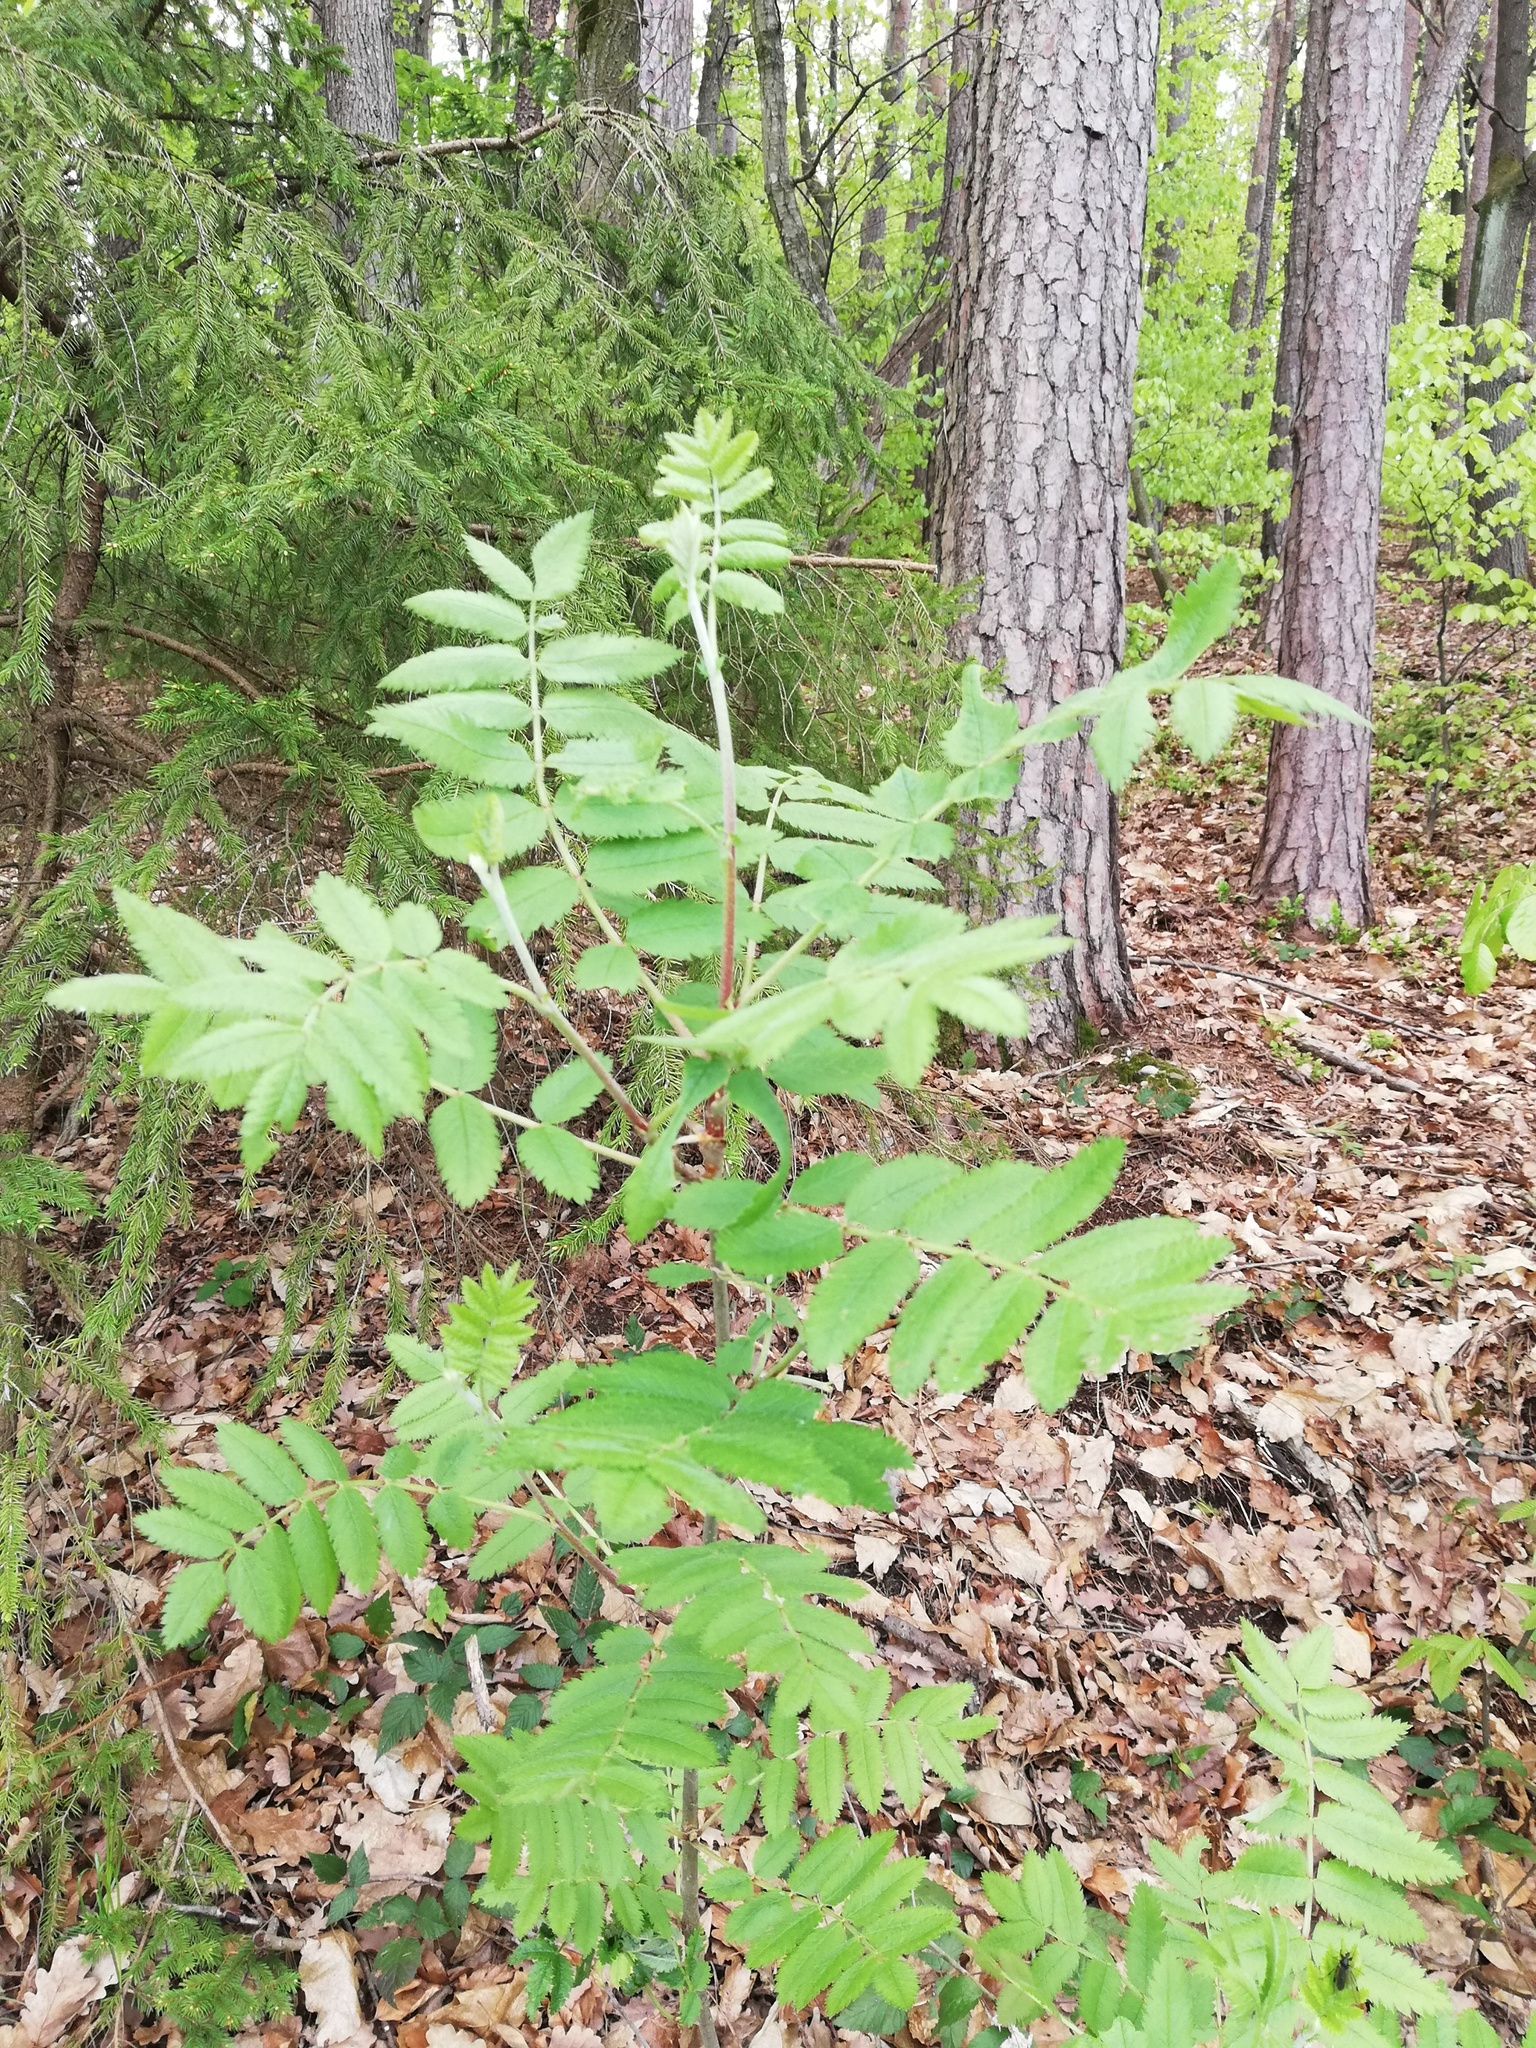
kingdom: Plantae
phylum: Tracheophyta
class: Magnoliopsida
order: Rosales
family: Rosaceae
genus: Sorbus
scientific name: Sorbus aucuparia
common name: Rowan
